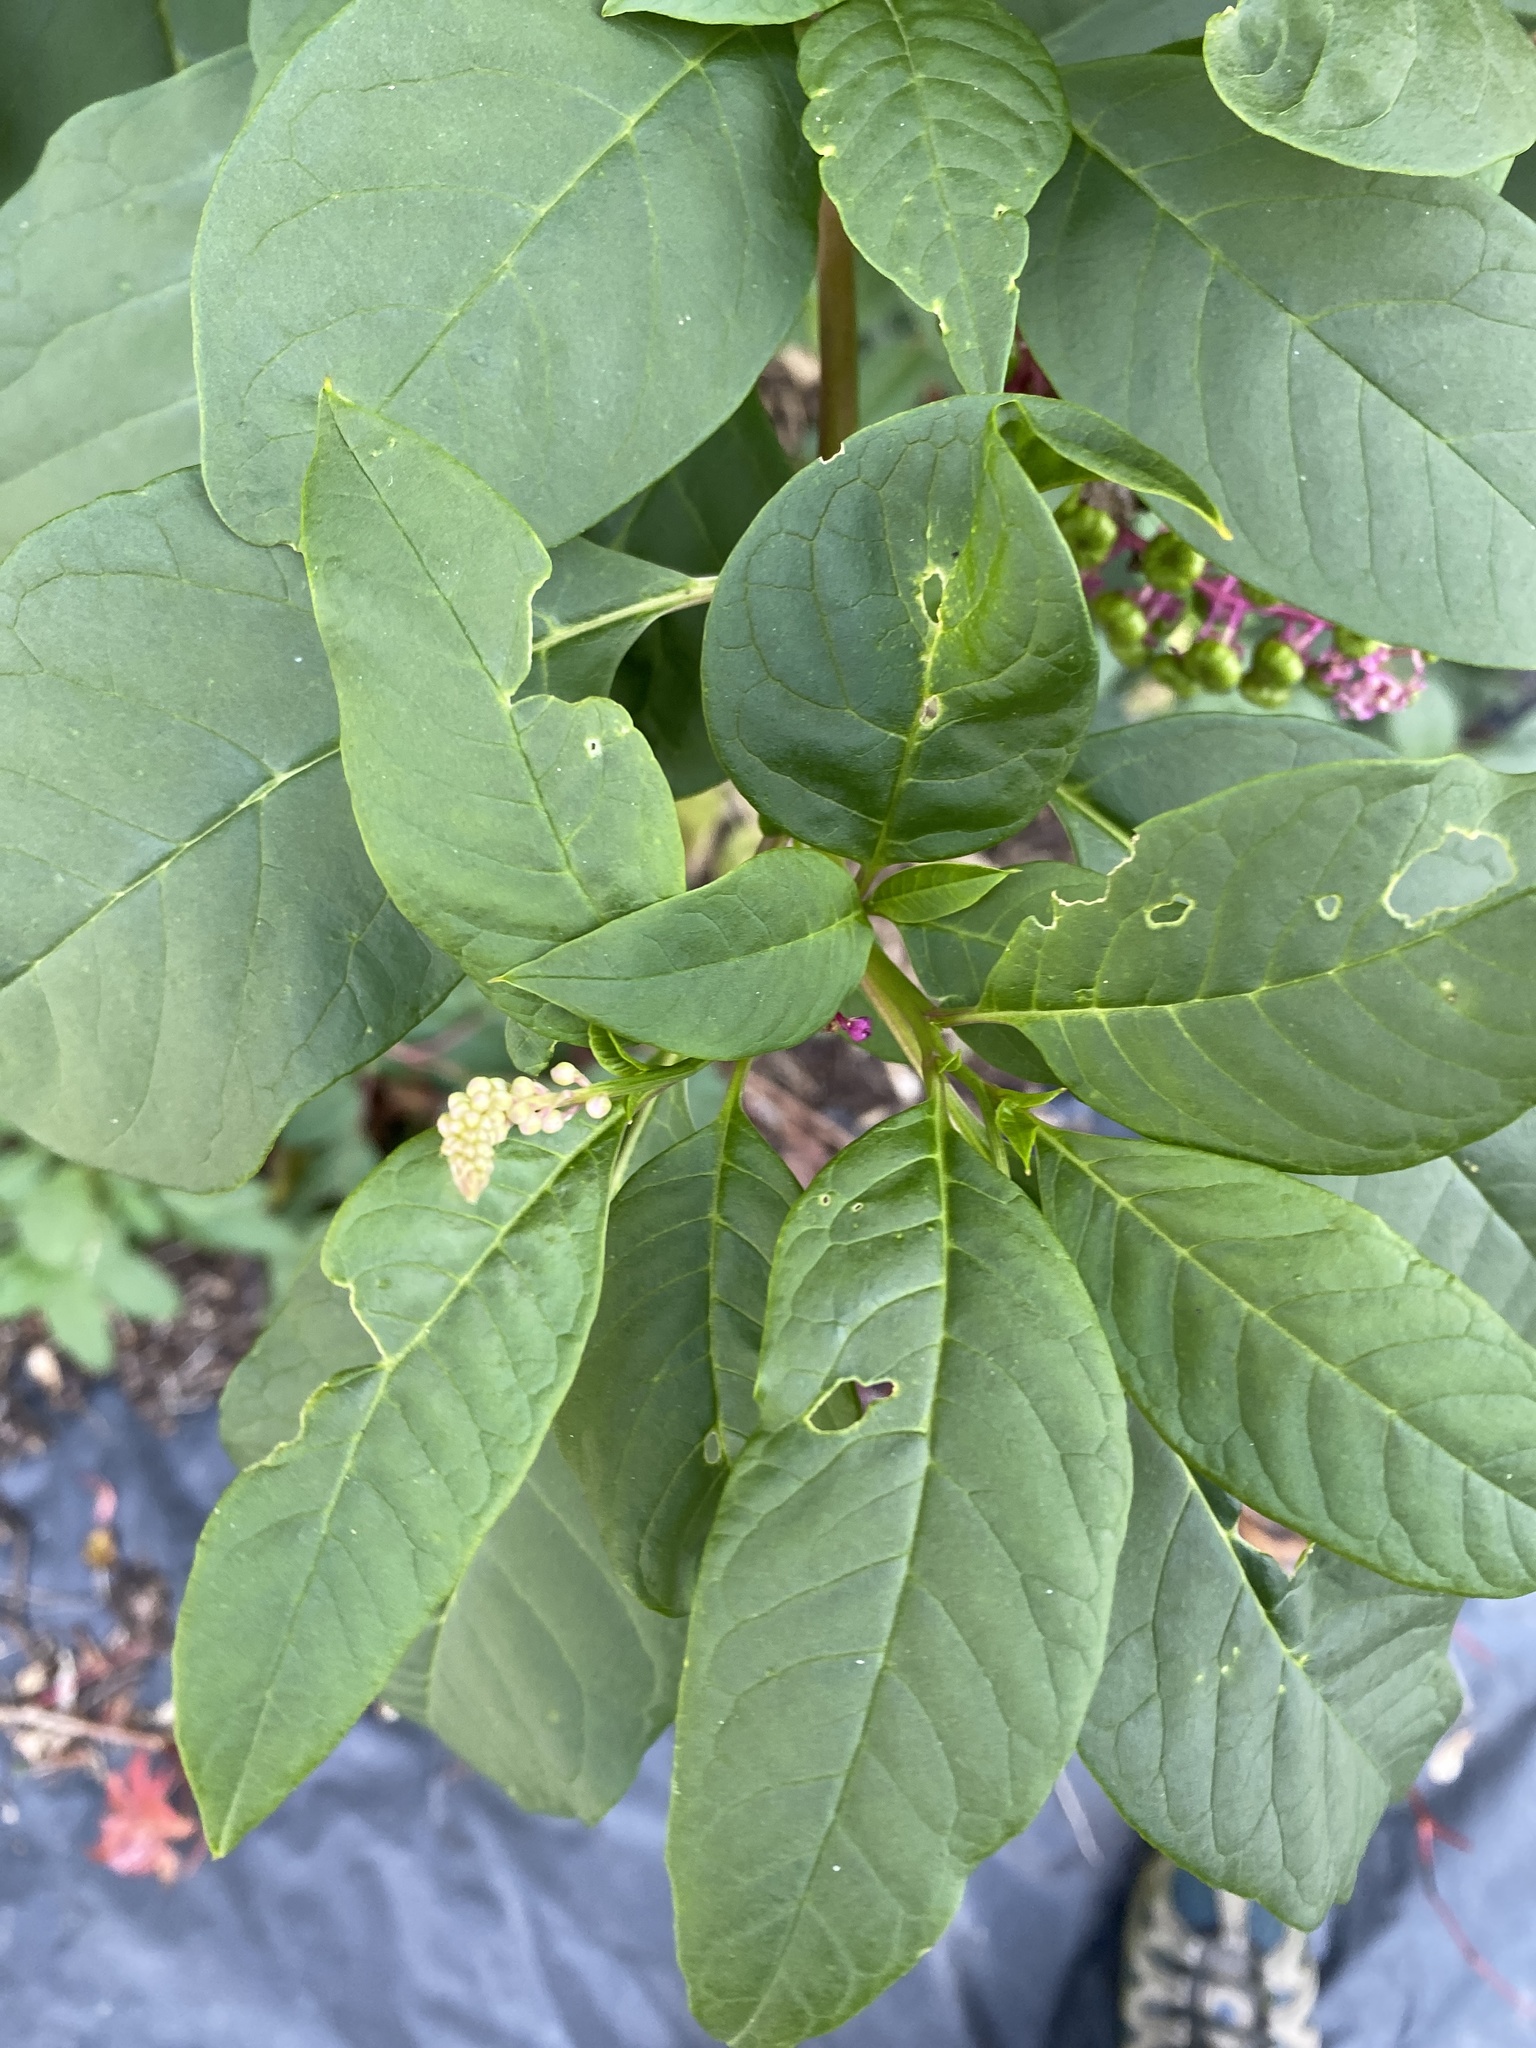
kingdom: Plantae
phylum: Tracheophyta
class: Magnoliopsida
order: Caryophyllales
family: Phytolaccaceae
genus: Phytolacca
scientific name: Phytolacca americana
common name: American pokeweed
